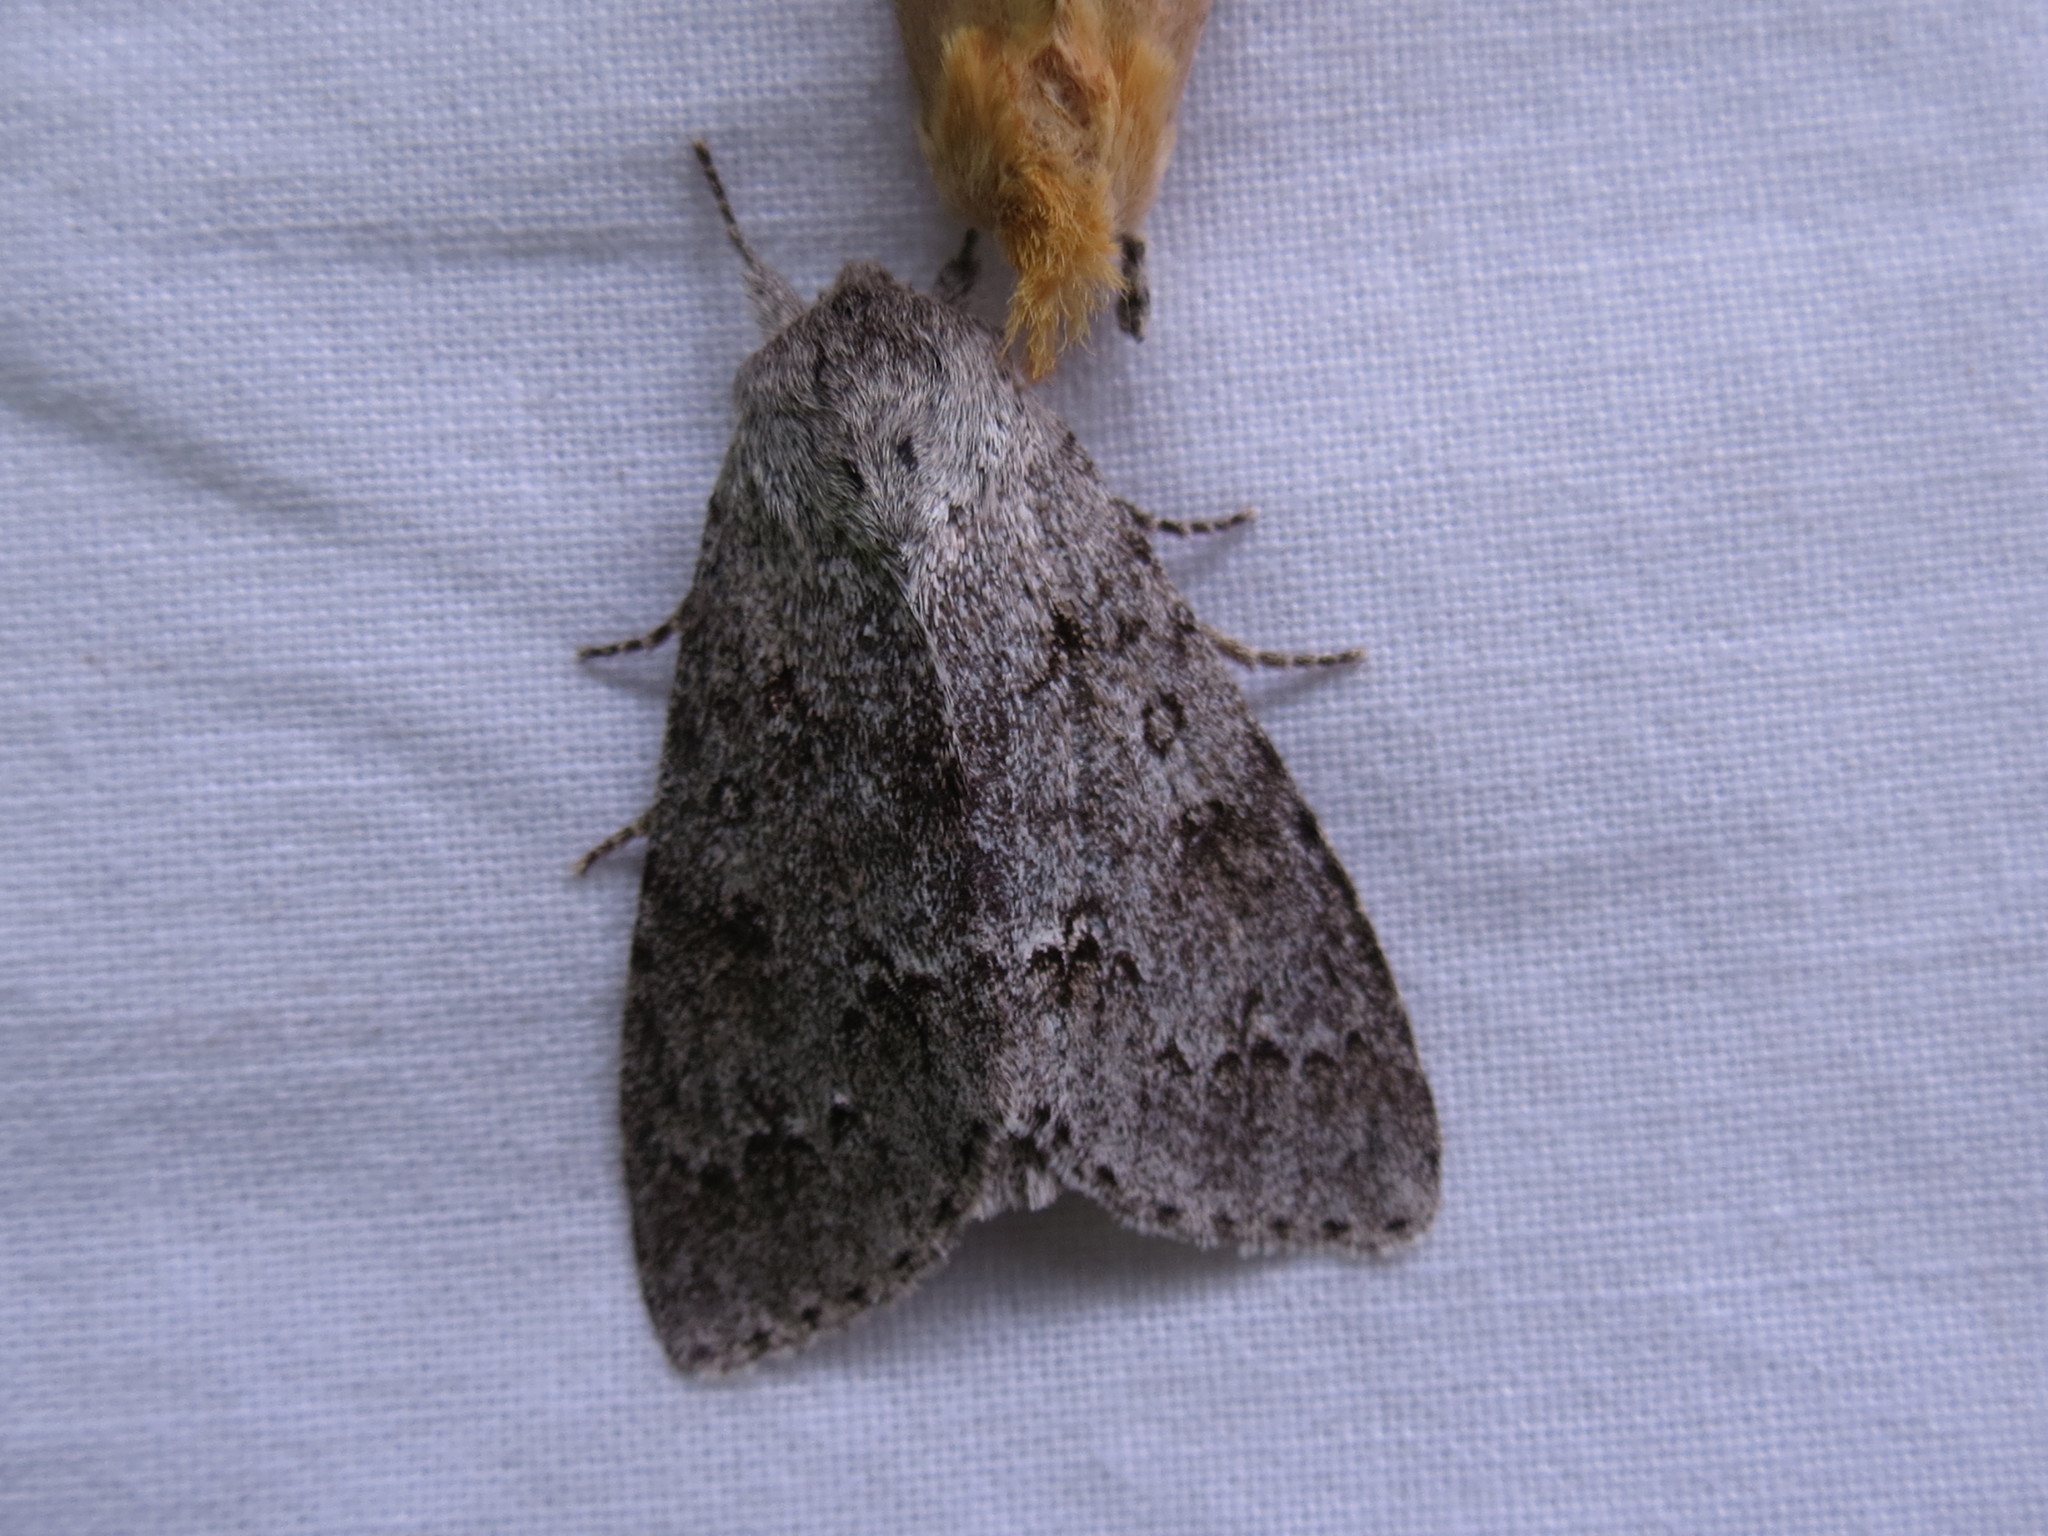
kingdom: Animalia
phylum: Arthropoda
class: Insecta
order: Lepidoptera
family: Noctuidae
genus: Acronicta
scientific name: Acronicta americana
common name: American dagger
